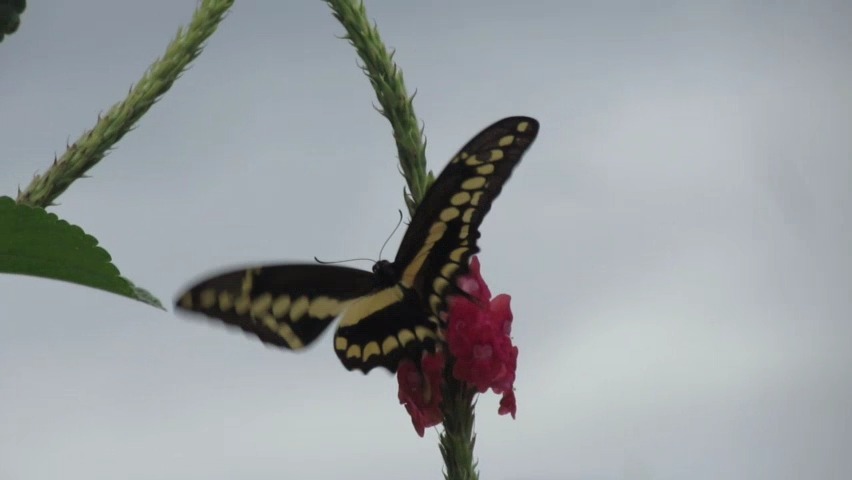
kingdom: Animalia
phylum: Arthropoda
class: Insecta
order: Lepidoptera
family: Papilionidae
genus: Papilio
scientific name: Papilio rumiko
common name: Western giant swallowtail
